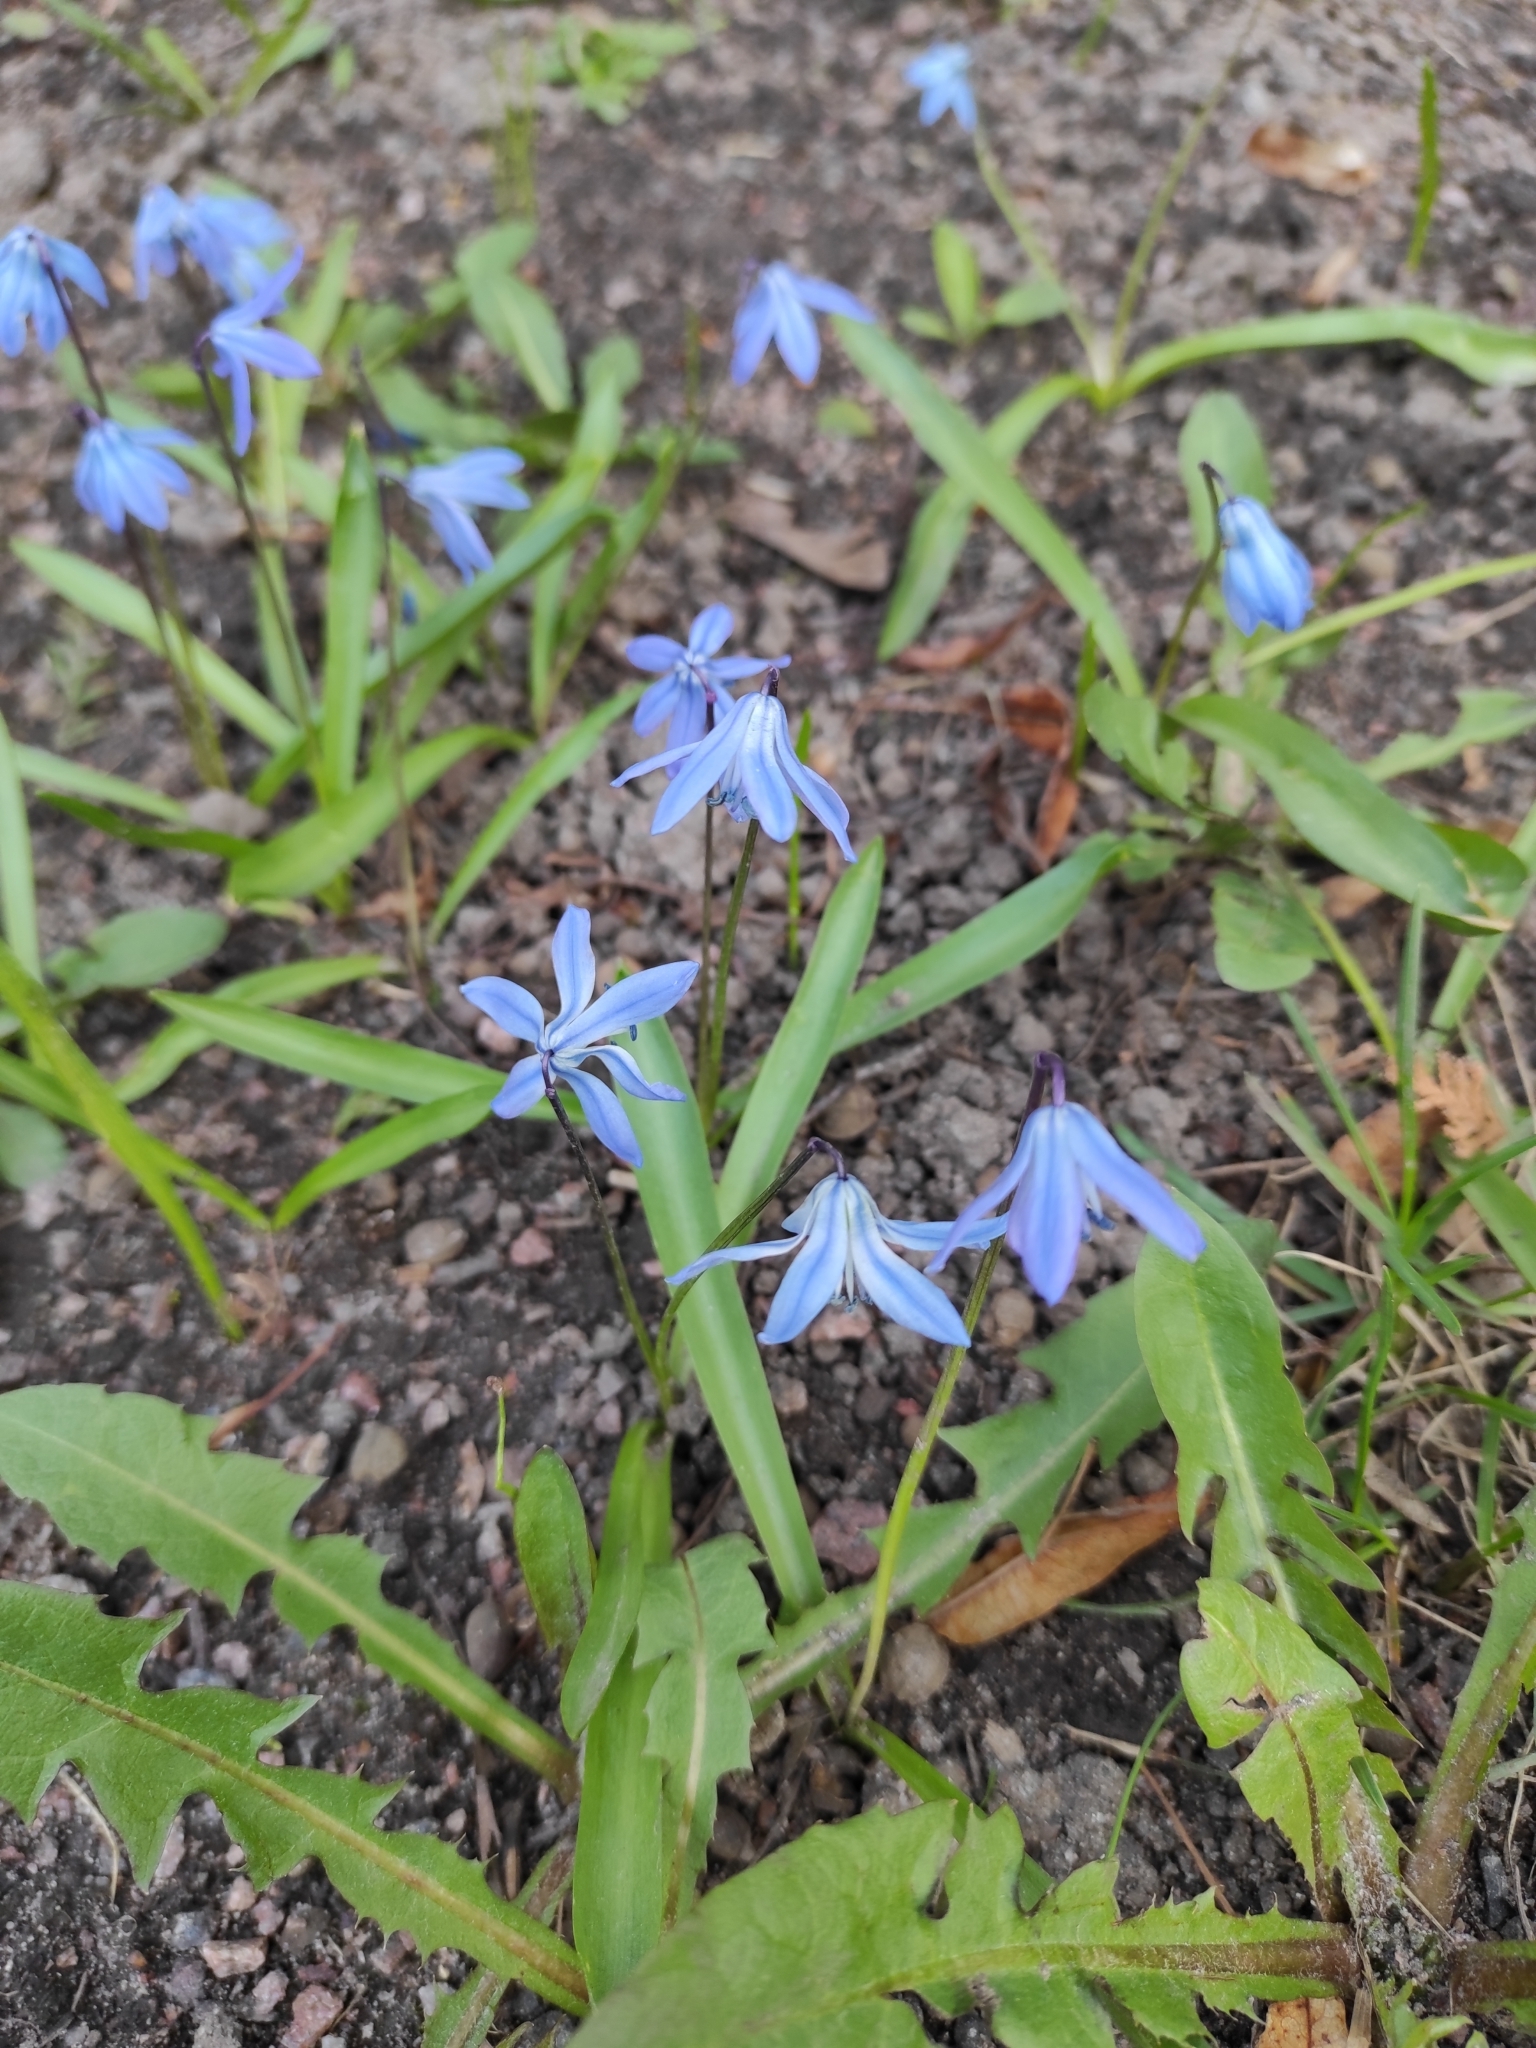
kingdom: Plantae
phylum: Tracheophyta
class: Liliopsida
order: Asparagales
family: Asparagaceae
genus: Scilla
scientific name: Scilla siberica
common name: Siberian squill
